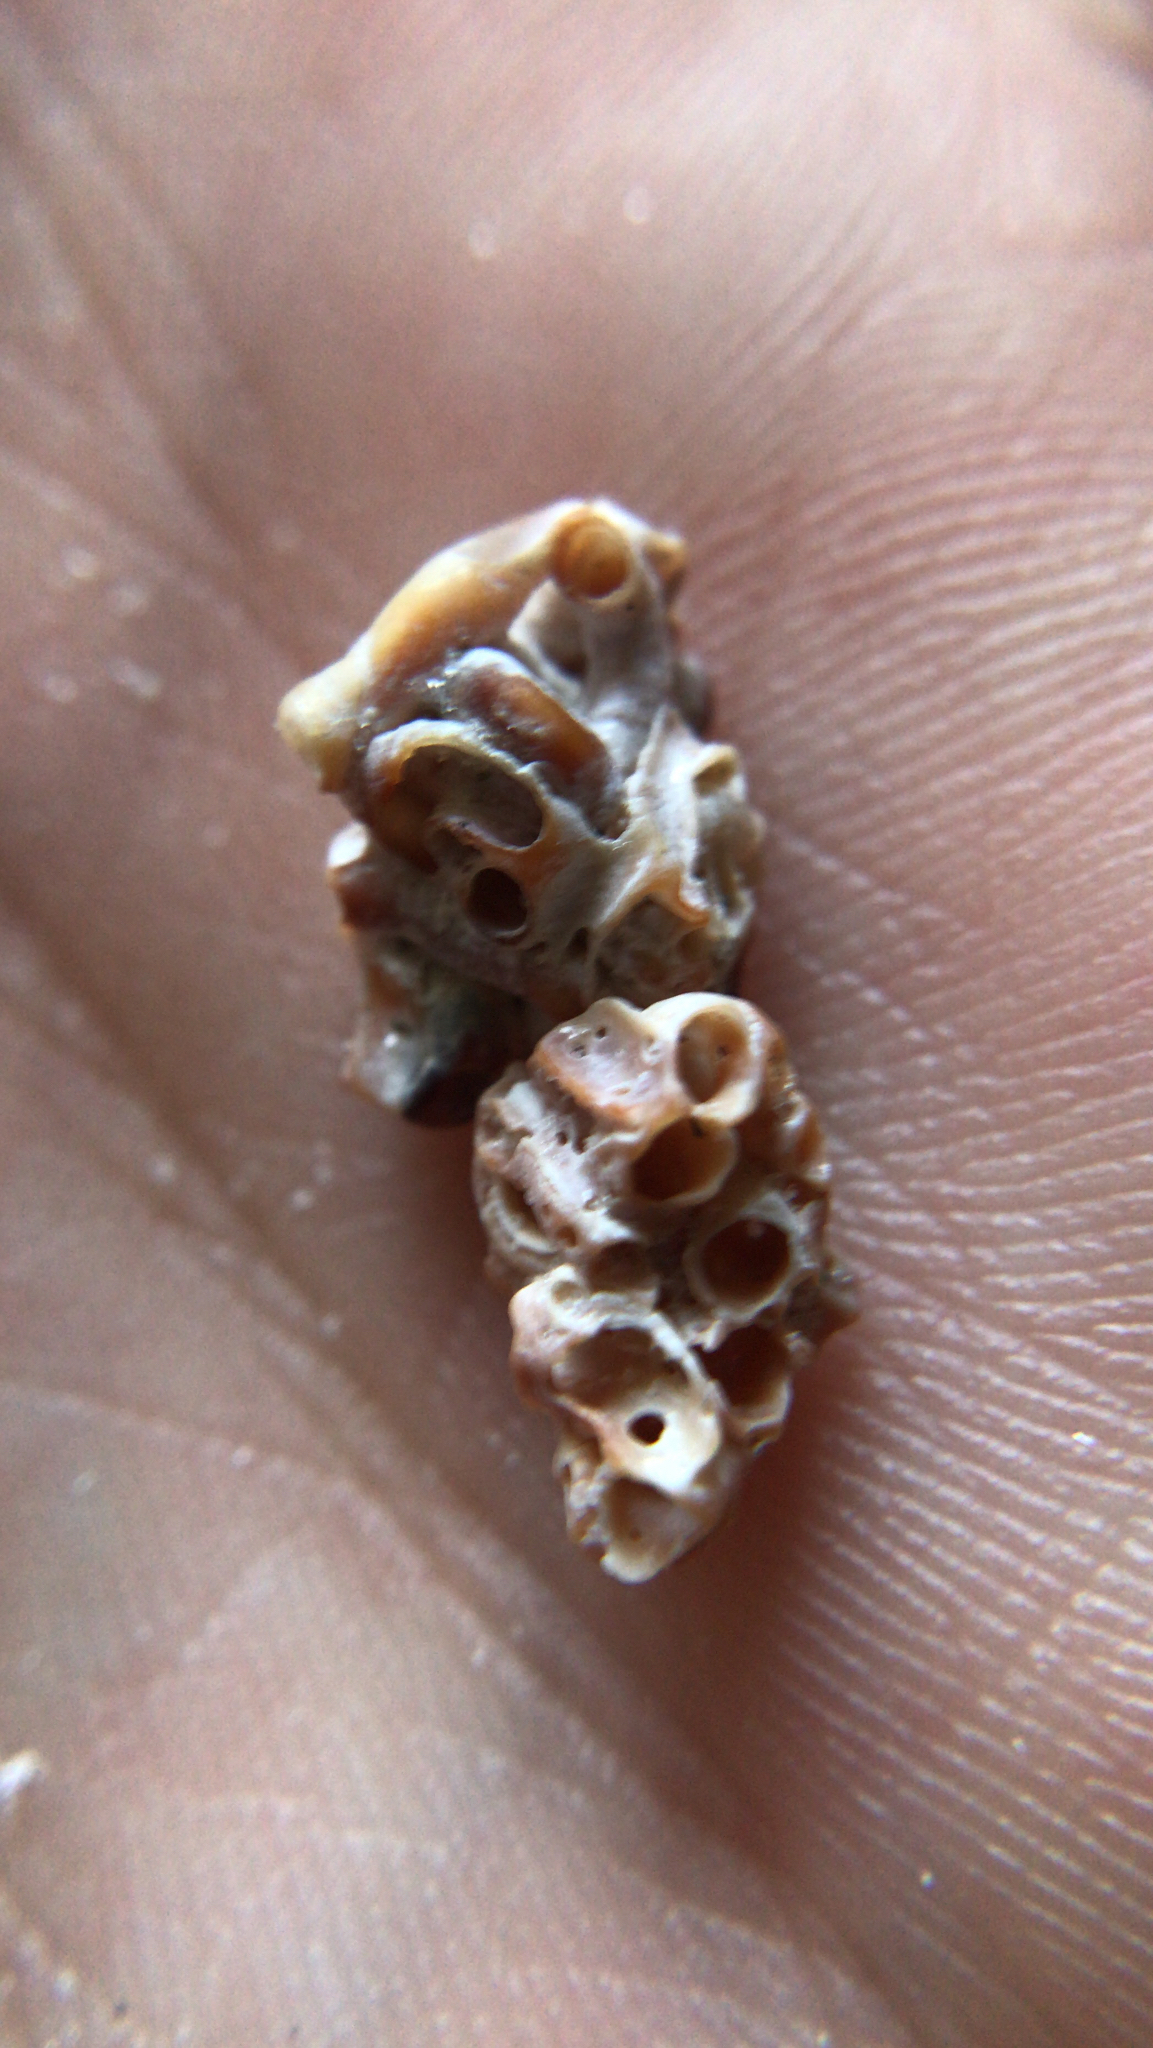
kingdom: Animalia
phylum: Mollusca
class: Gastropoda
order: Littorinimorpha
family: Vermetidae
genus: Petaloconchus
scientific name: Petaloconchus varians
